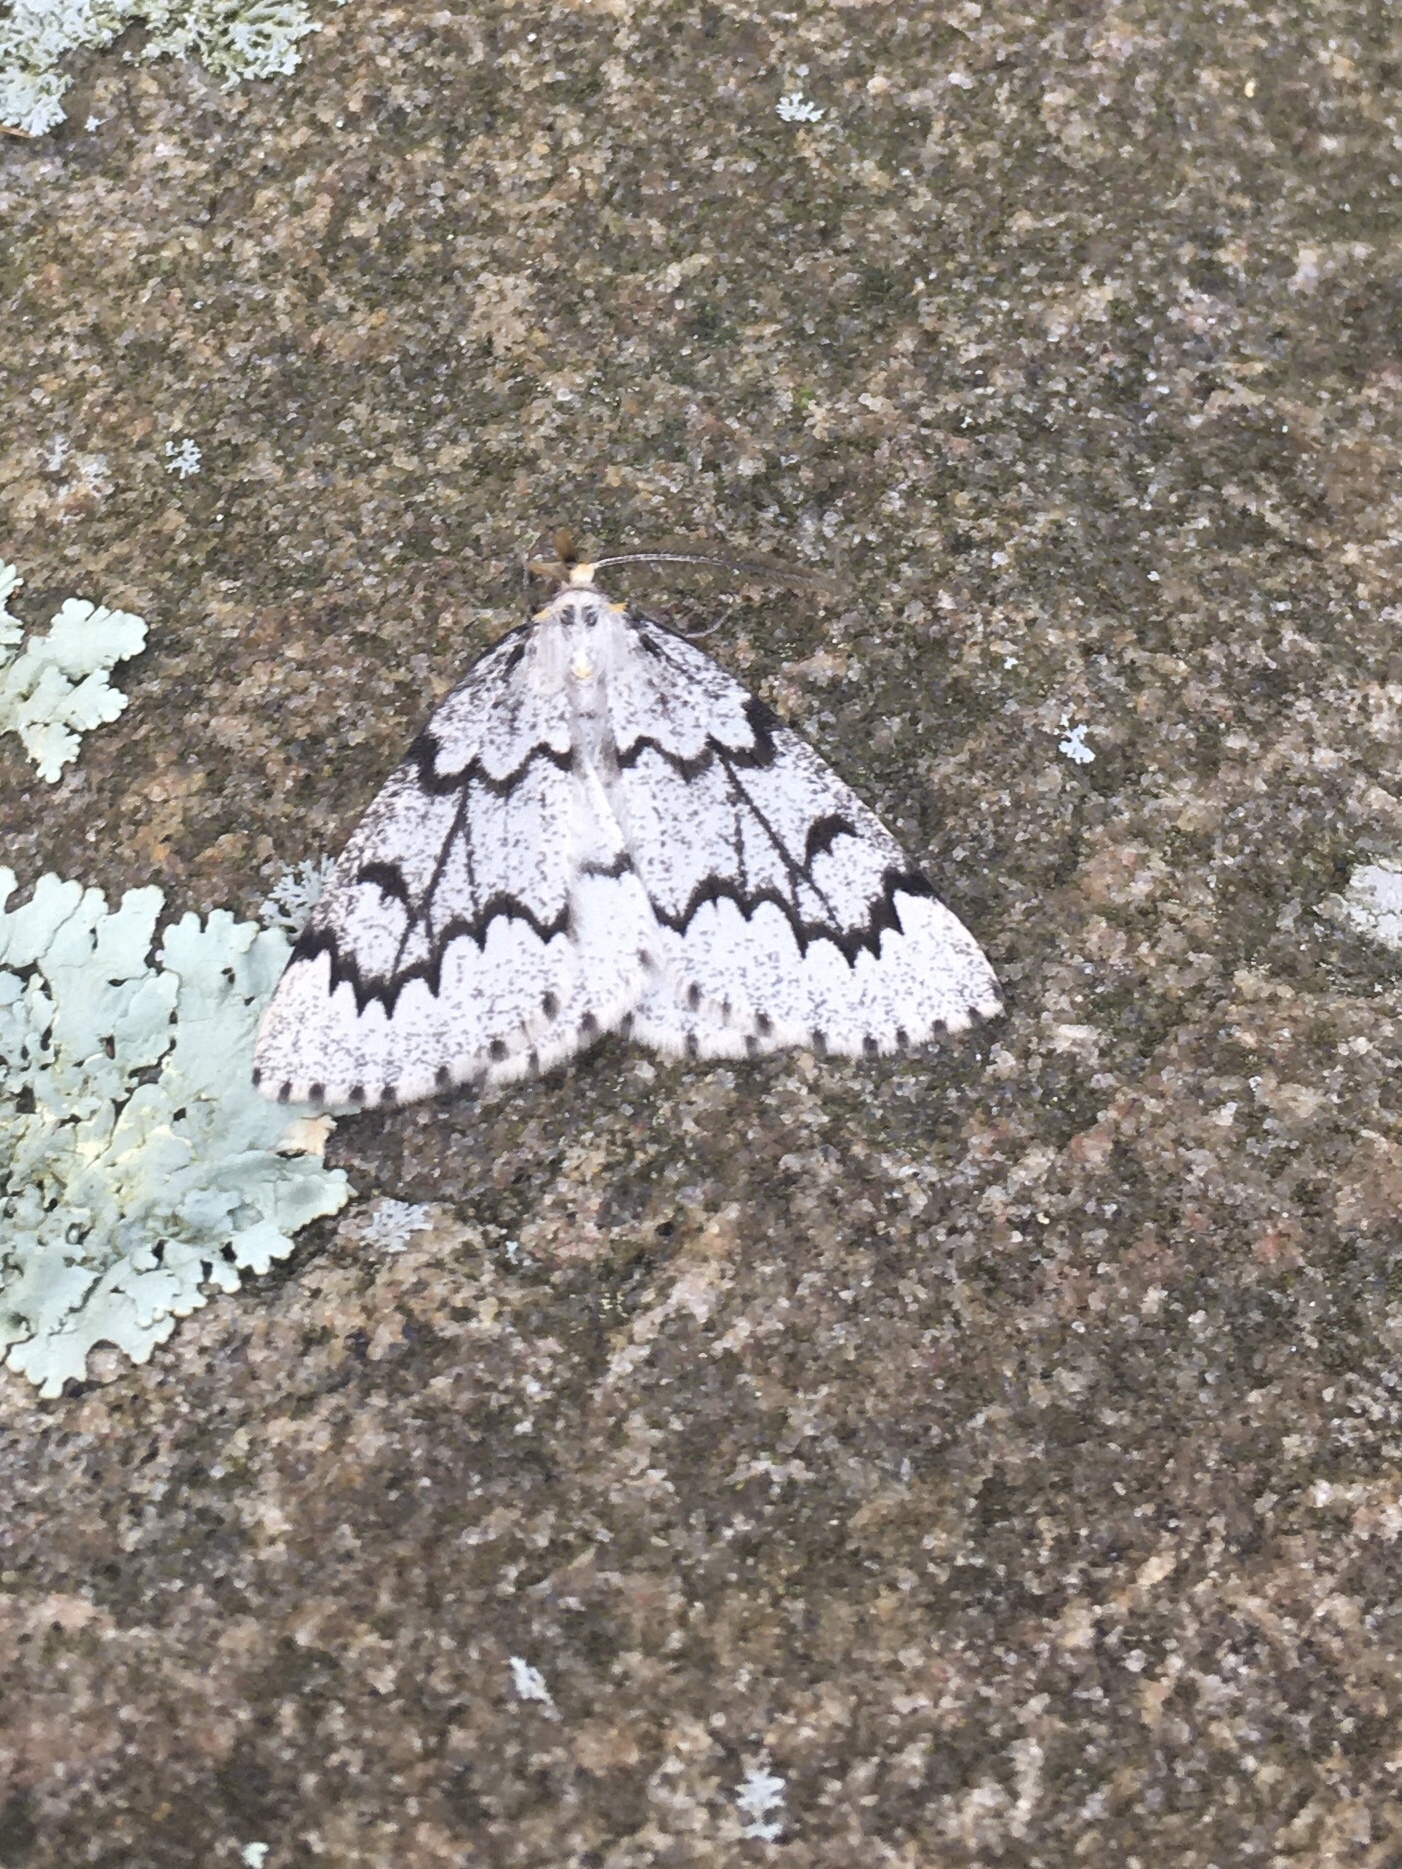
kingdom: Animalia
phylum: Arthropoda
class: Insecta
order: Lepidoptera
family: Geometridae
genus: Nepytia
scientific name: Nepytia canosaria
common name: False hemlock looper
